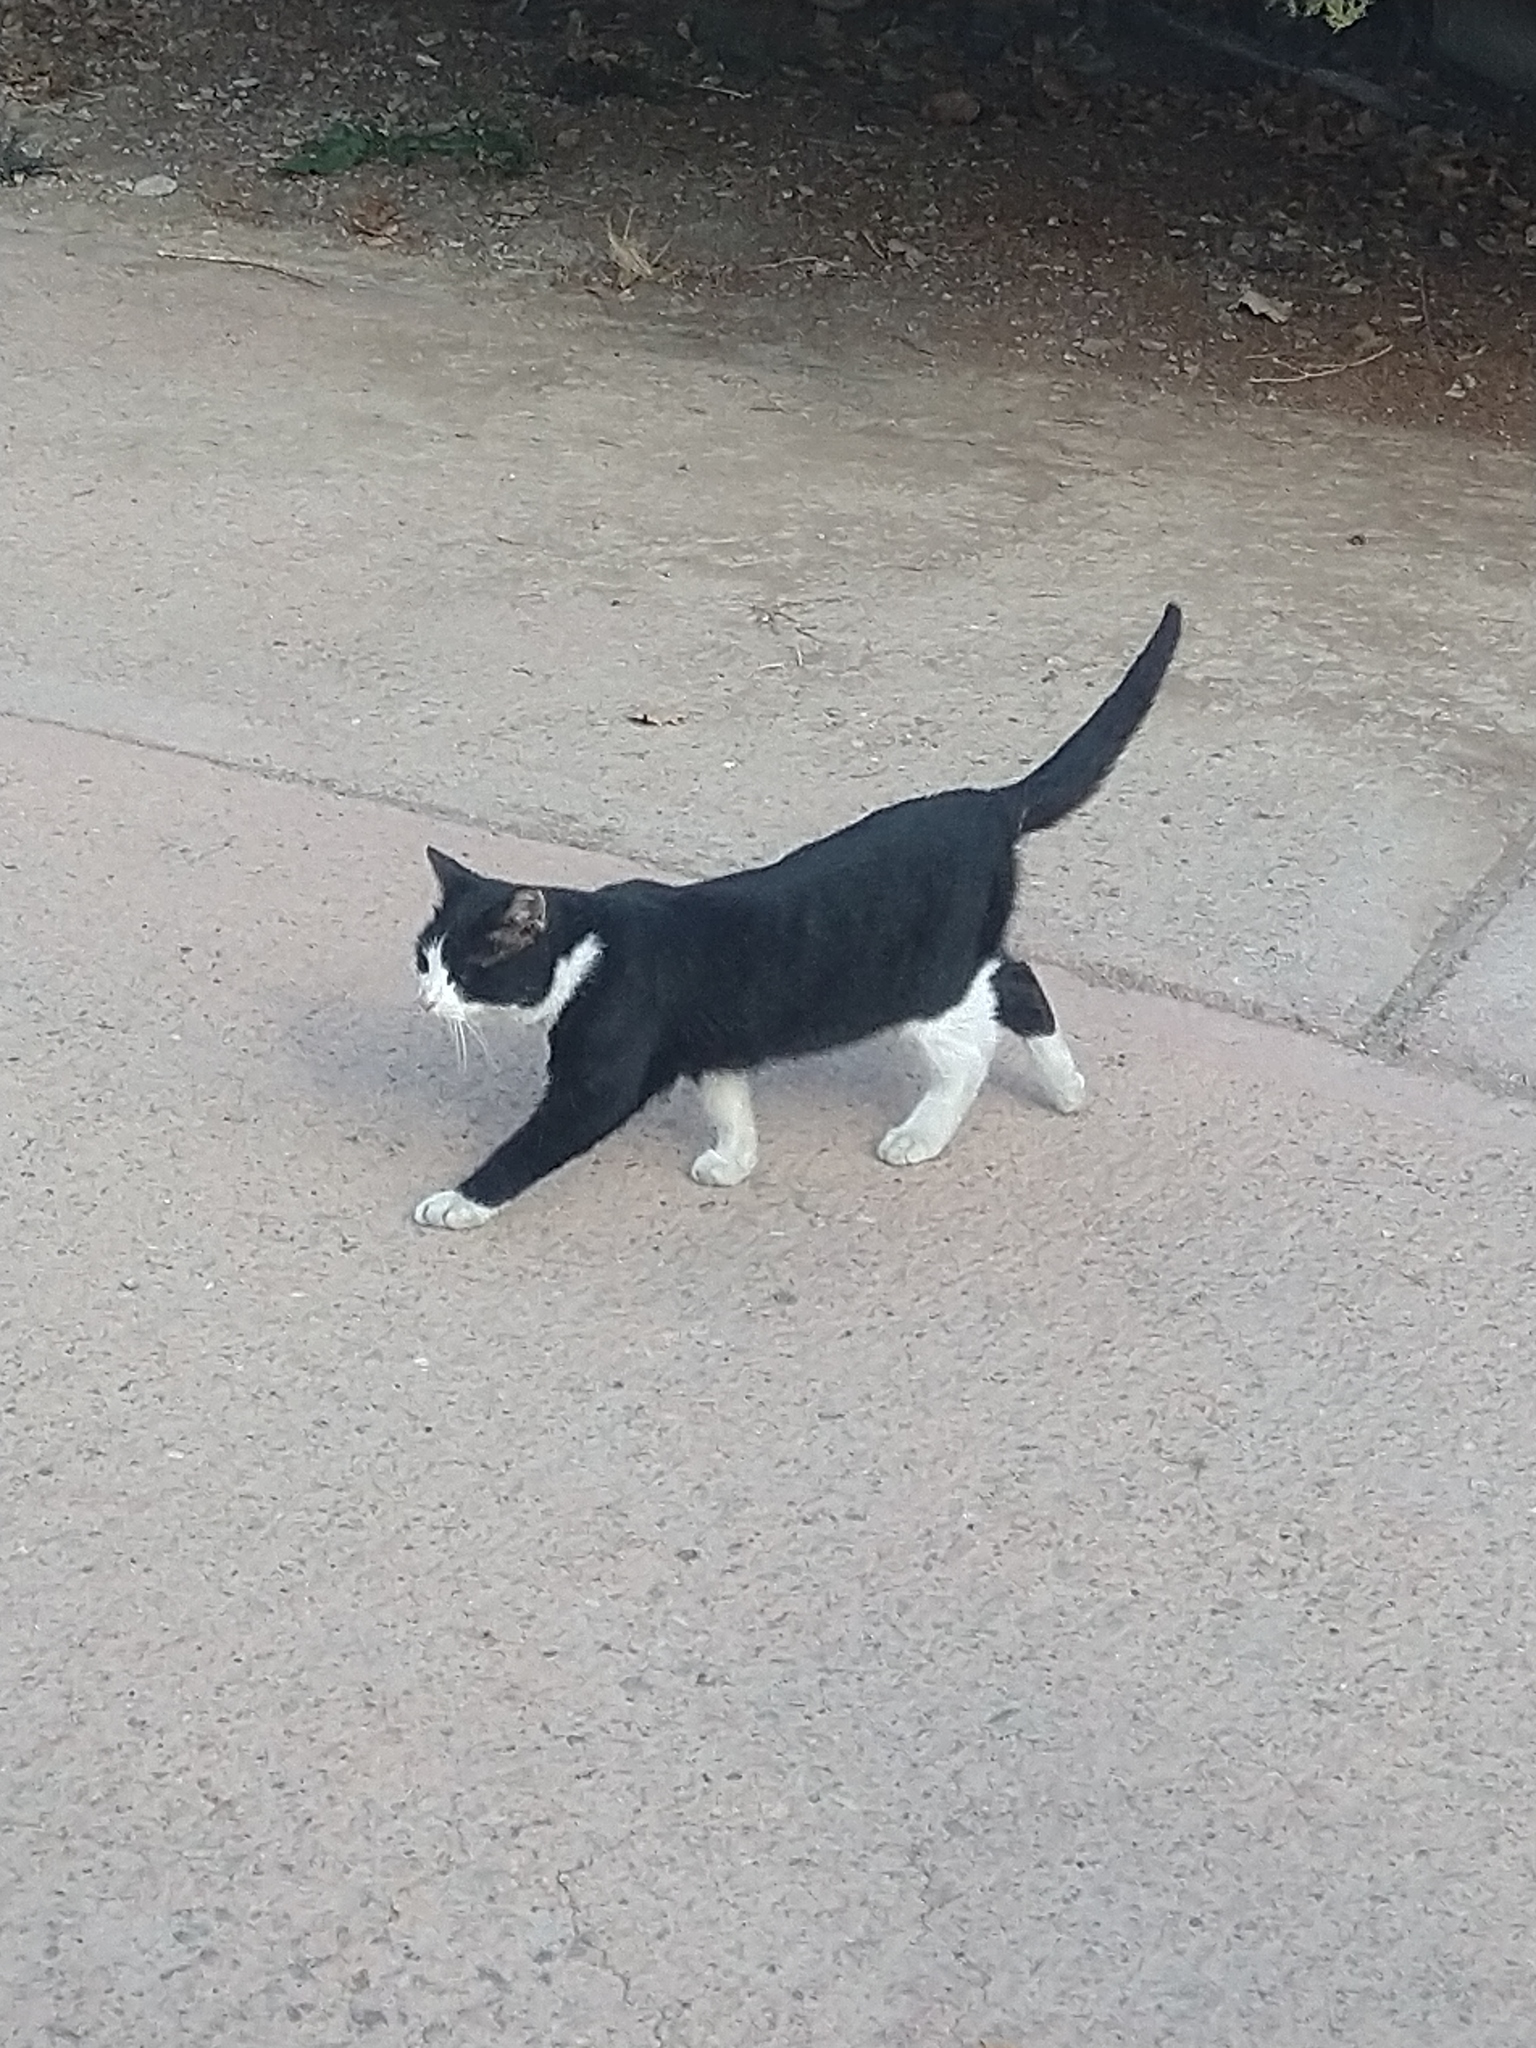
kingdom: Animalia
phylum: Chordata
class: Mammalia
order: Carnivora
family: Felidae
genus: Felis
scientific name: Felis catus
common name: Domestic cat
